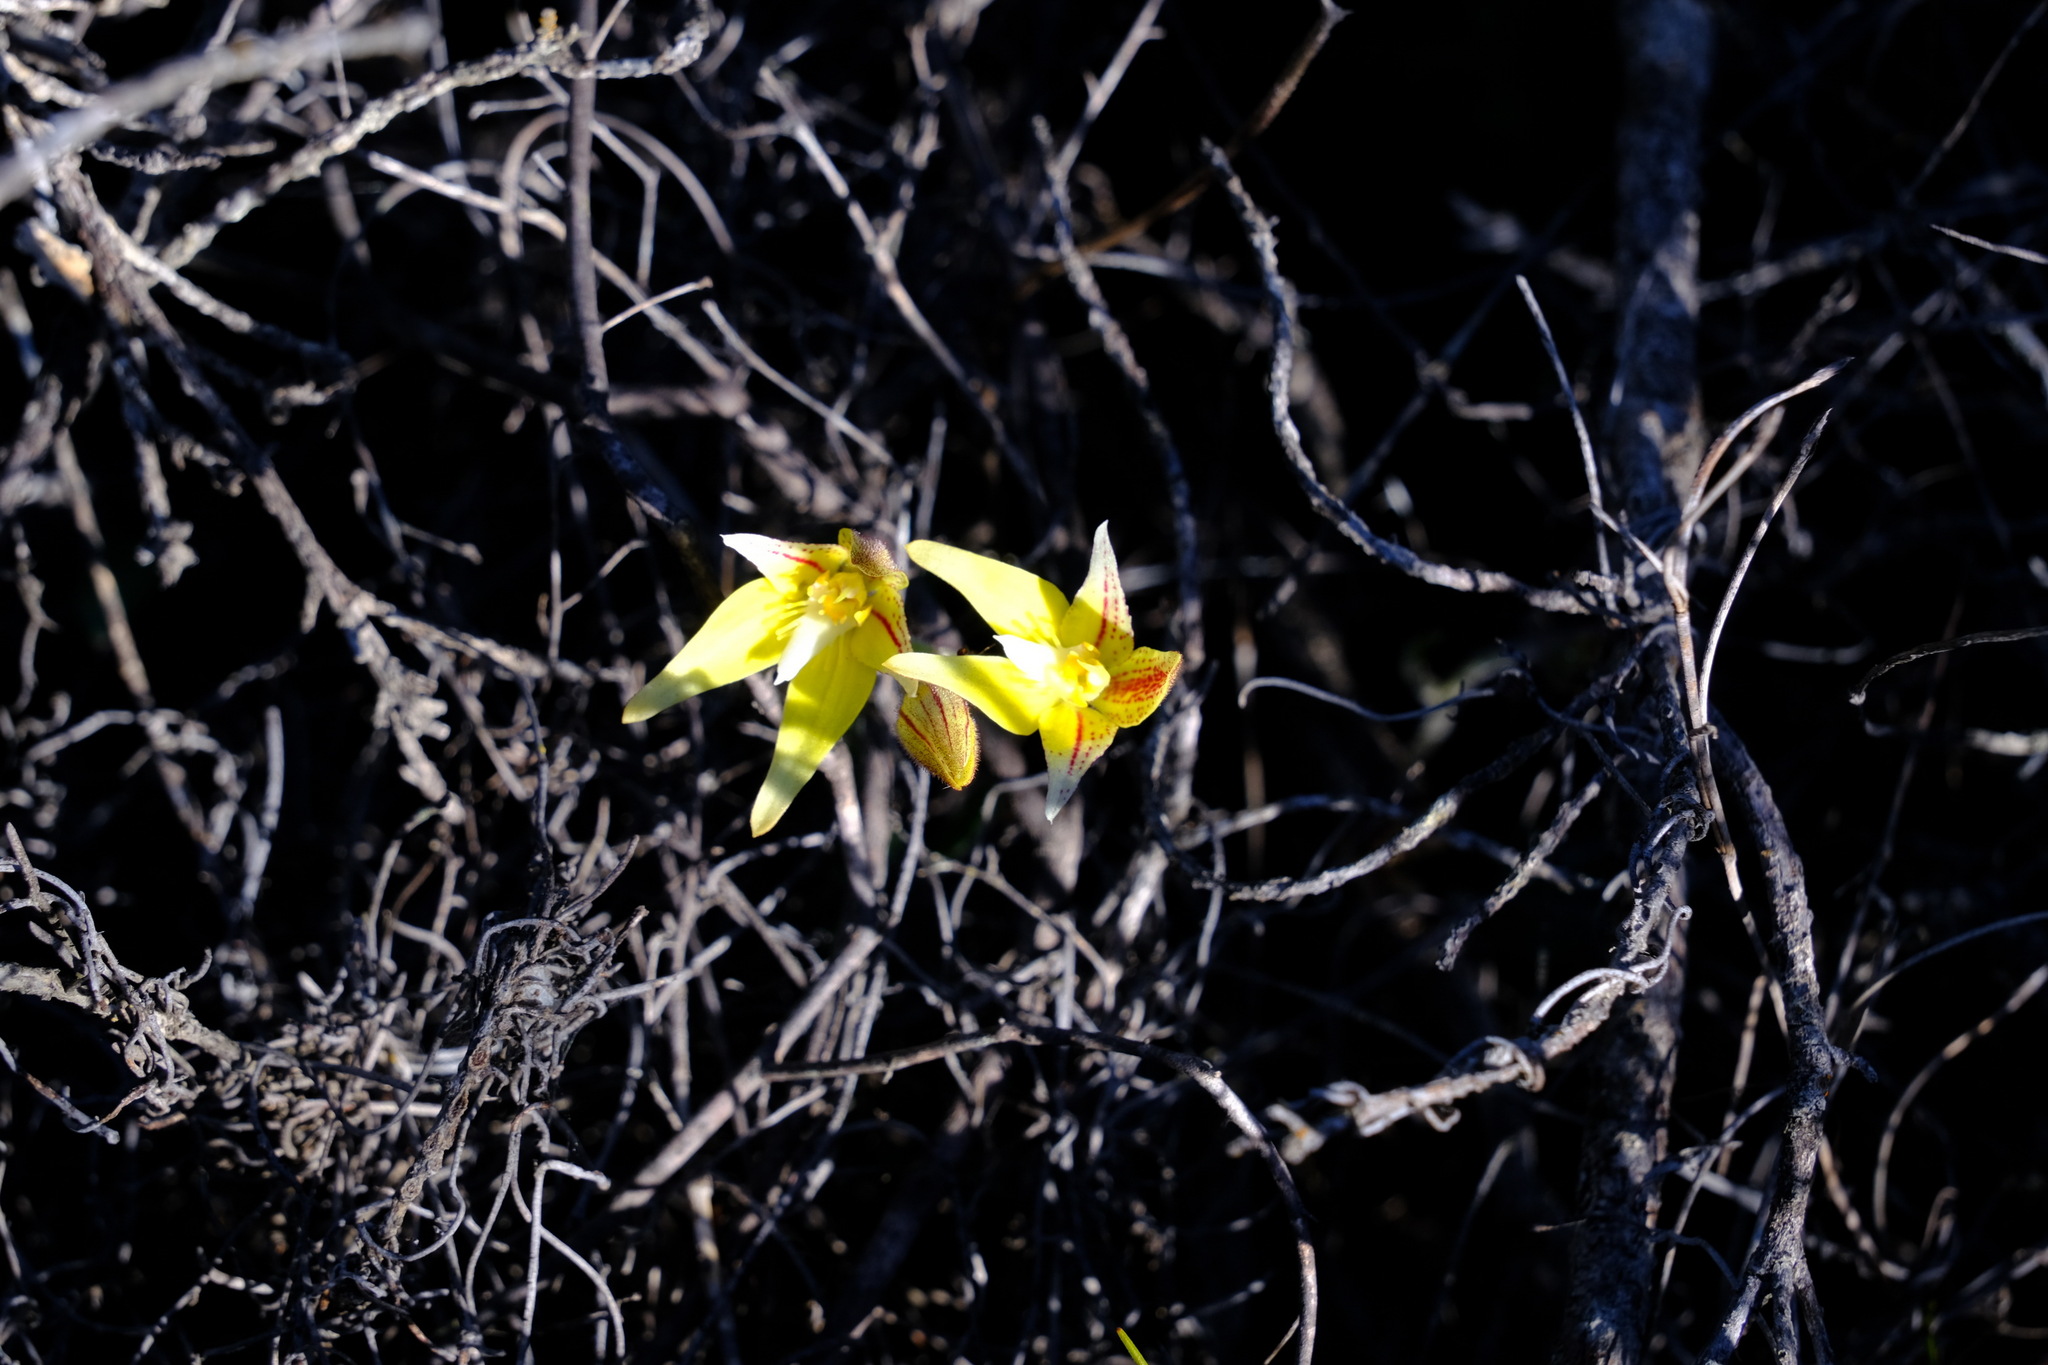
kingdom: Plantae
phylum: Tracheophyta
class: Liliopsida
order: Asparagales
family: Orchidaceae
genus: Caladenia
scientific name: Caladenia flava
